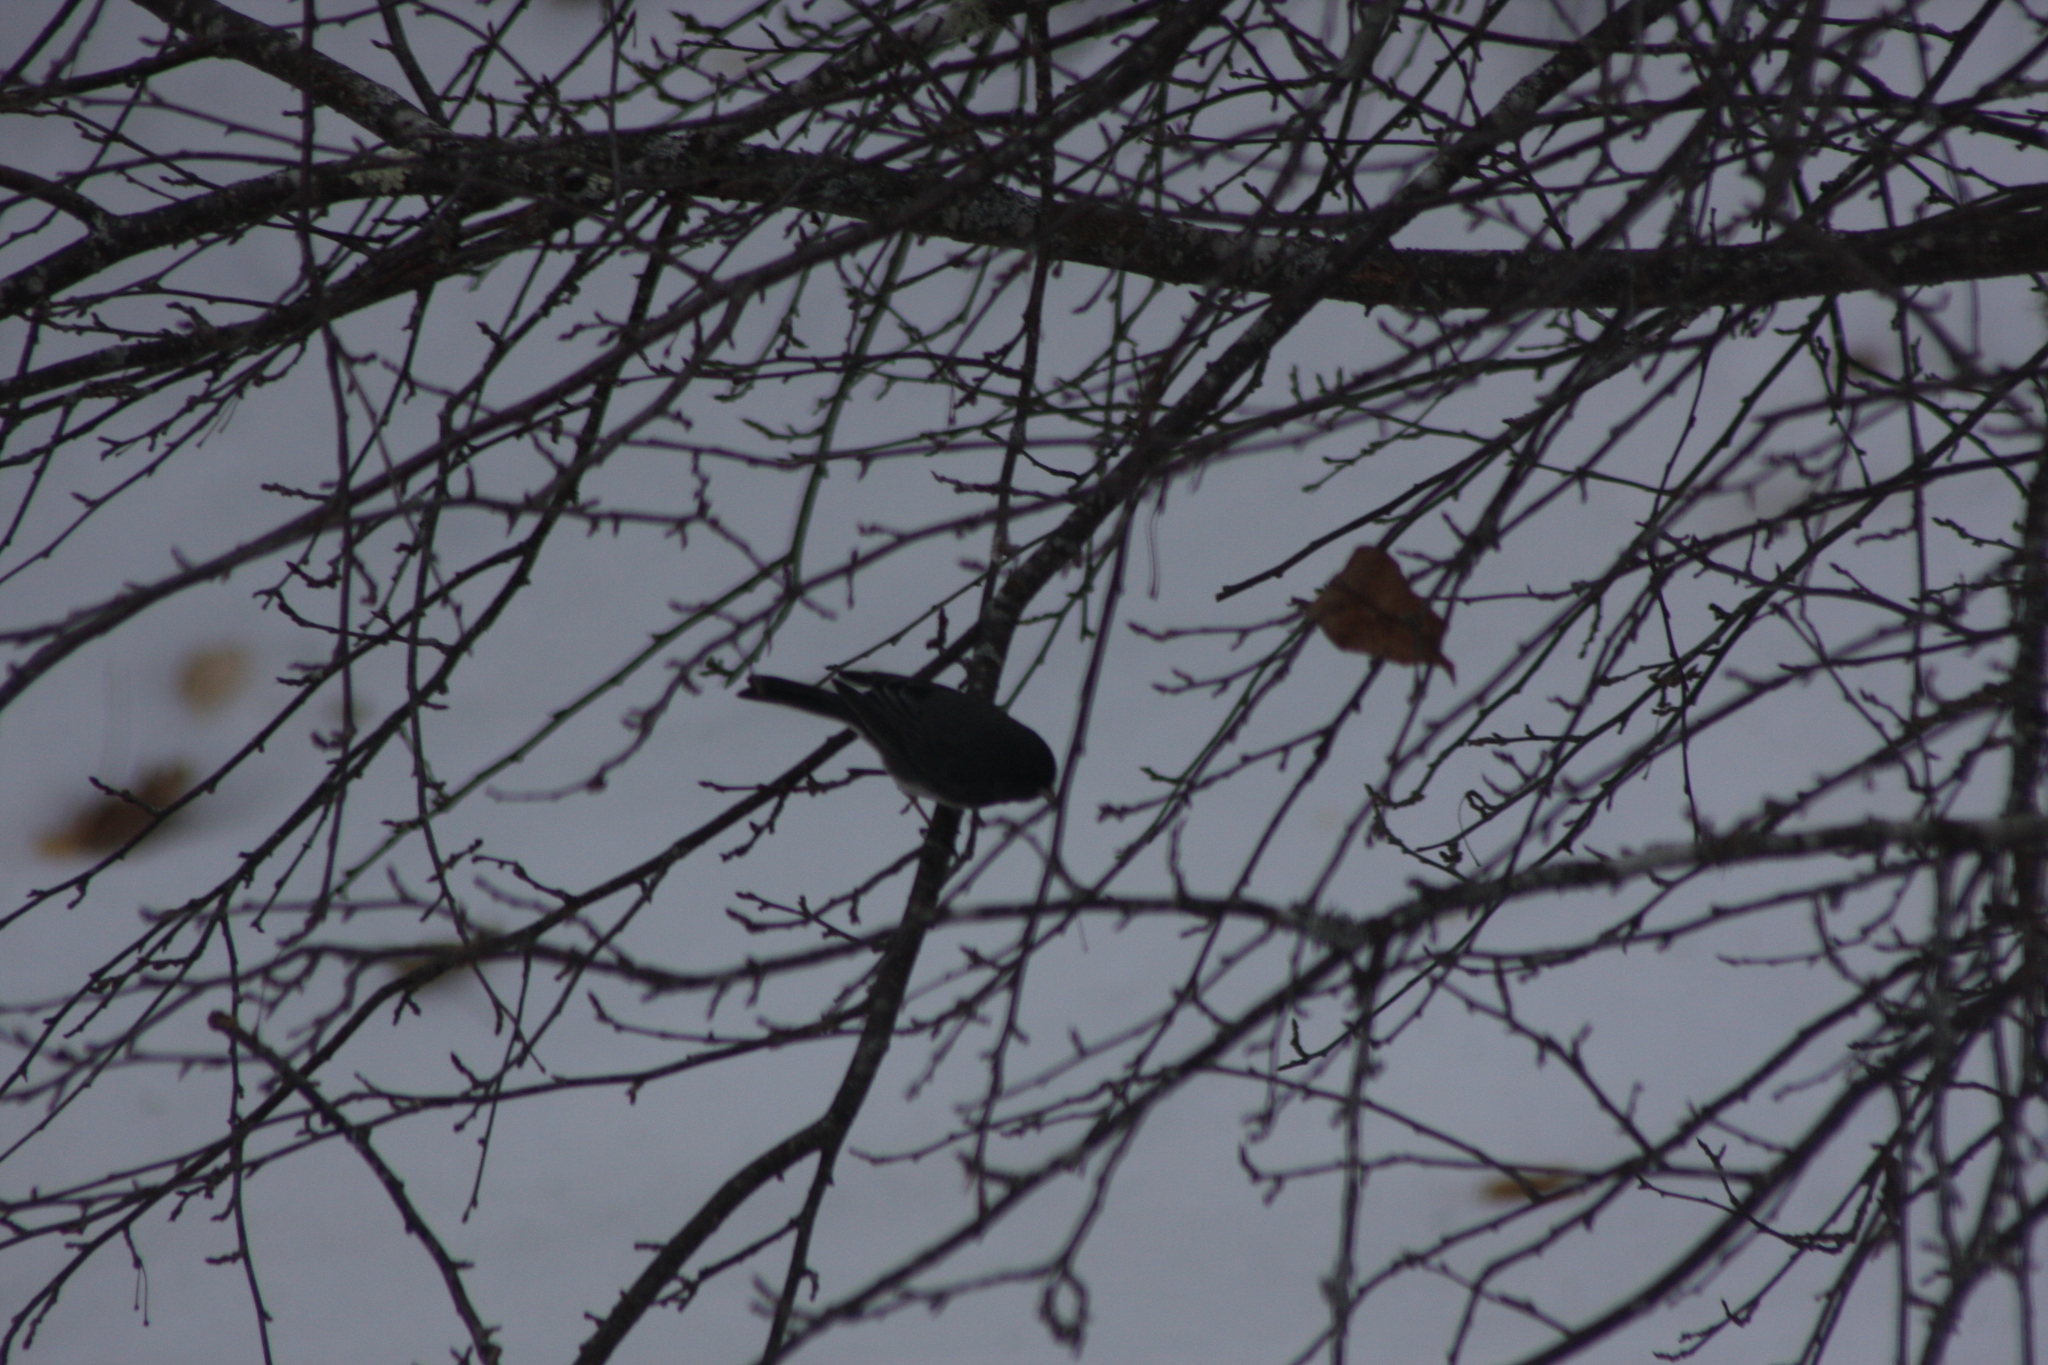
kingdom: Animalia
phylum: Chordata
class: Aves
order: Passeriformes
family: Passerellidae
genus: Junco
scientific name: Junco hyemalis
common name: Dark-eyed junco
